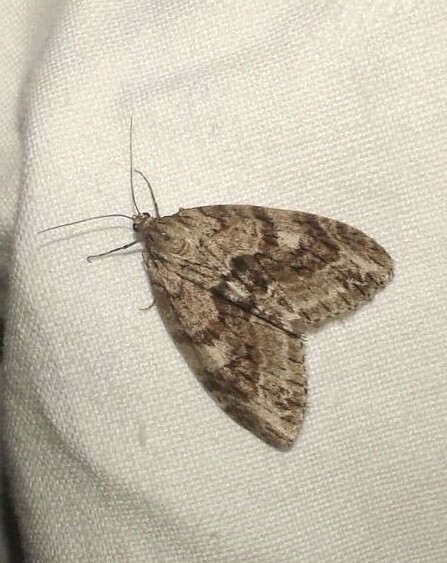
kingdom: Animalia
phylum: Arthropoda
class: Insecta
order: Lepidoptera
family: Geometridae
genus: Trichopteryx
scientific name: Trichopteryx polycommata
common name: Barred tooth-striped
